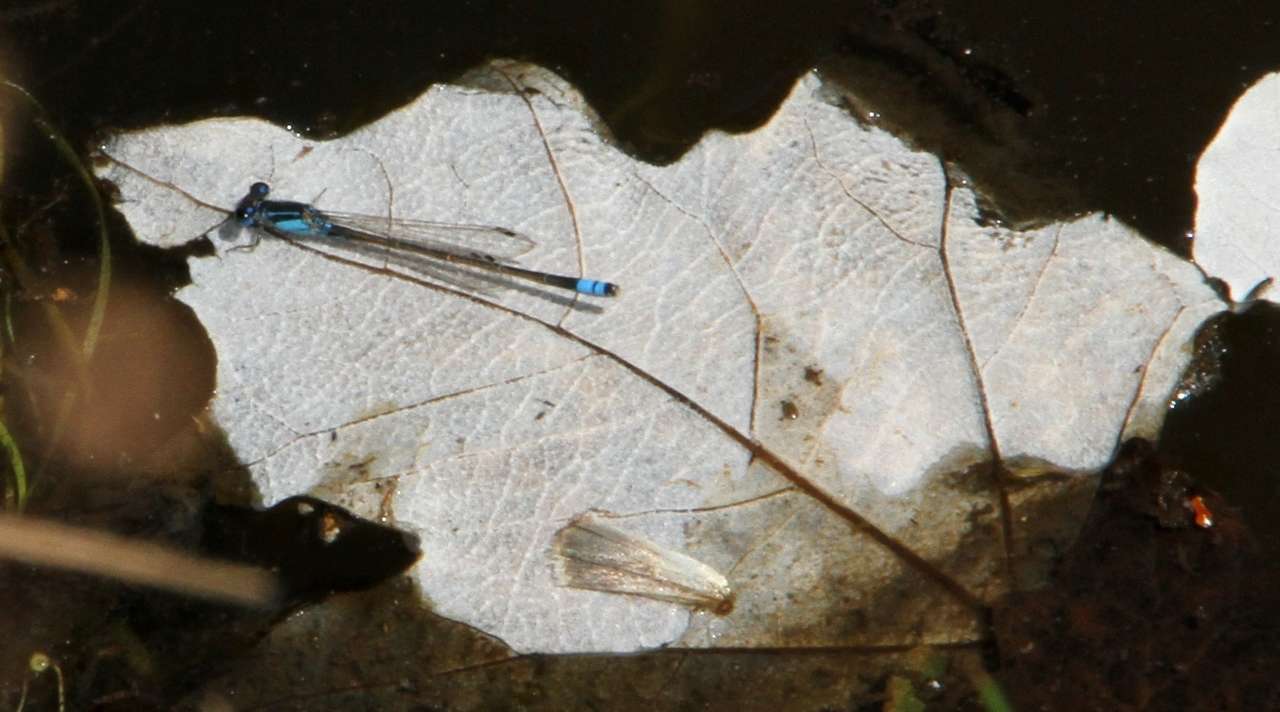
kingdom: Animalia
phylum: Arthropoda
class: Insecta
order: Odonata
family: Coenagrionidae
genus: Ischnura
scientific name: Ischnura heterosticta
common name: Common bluetail
